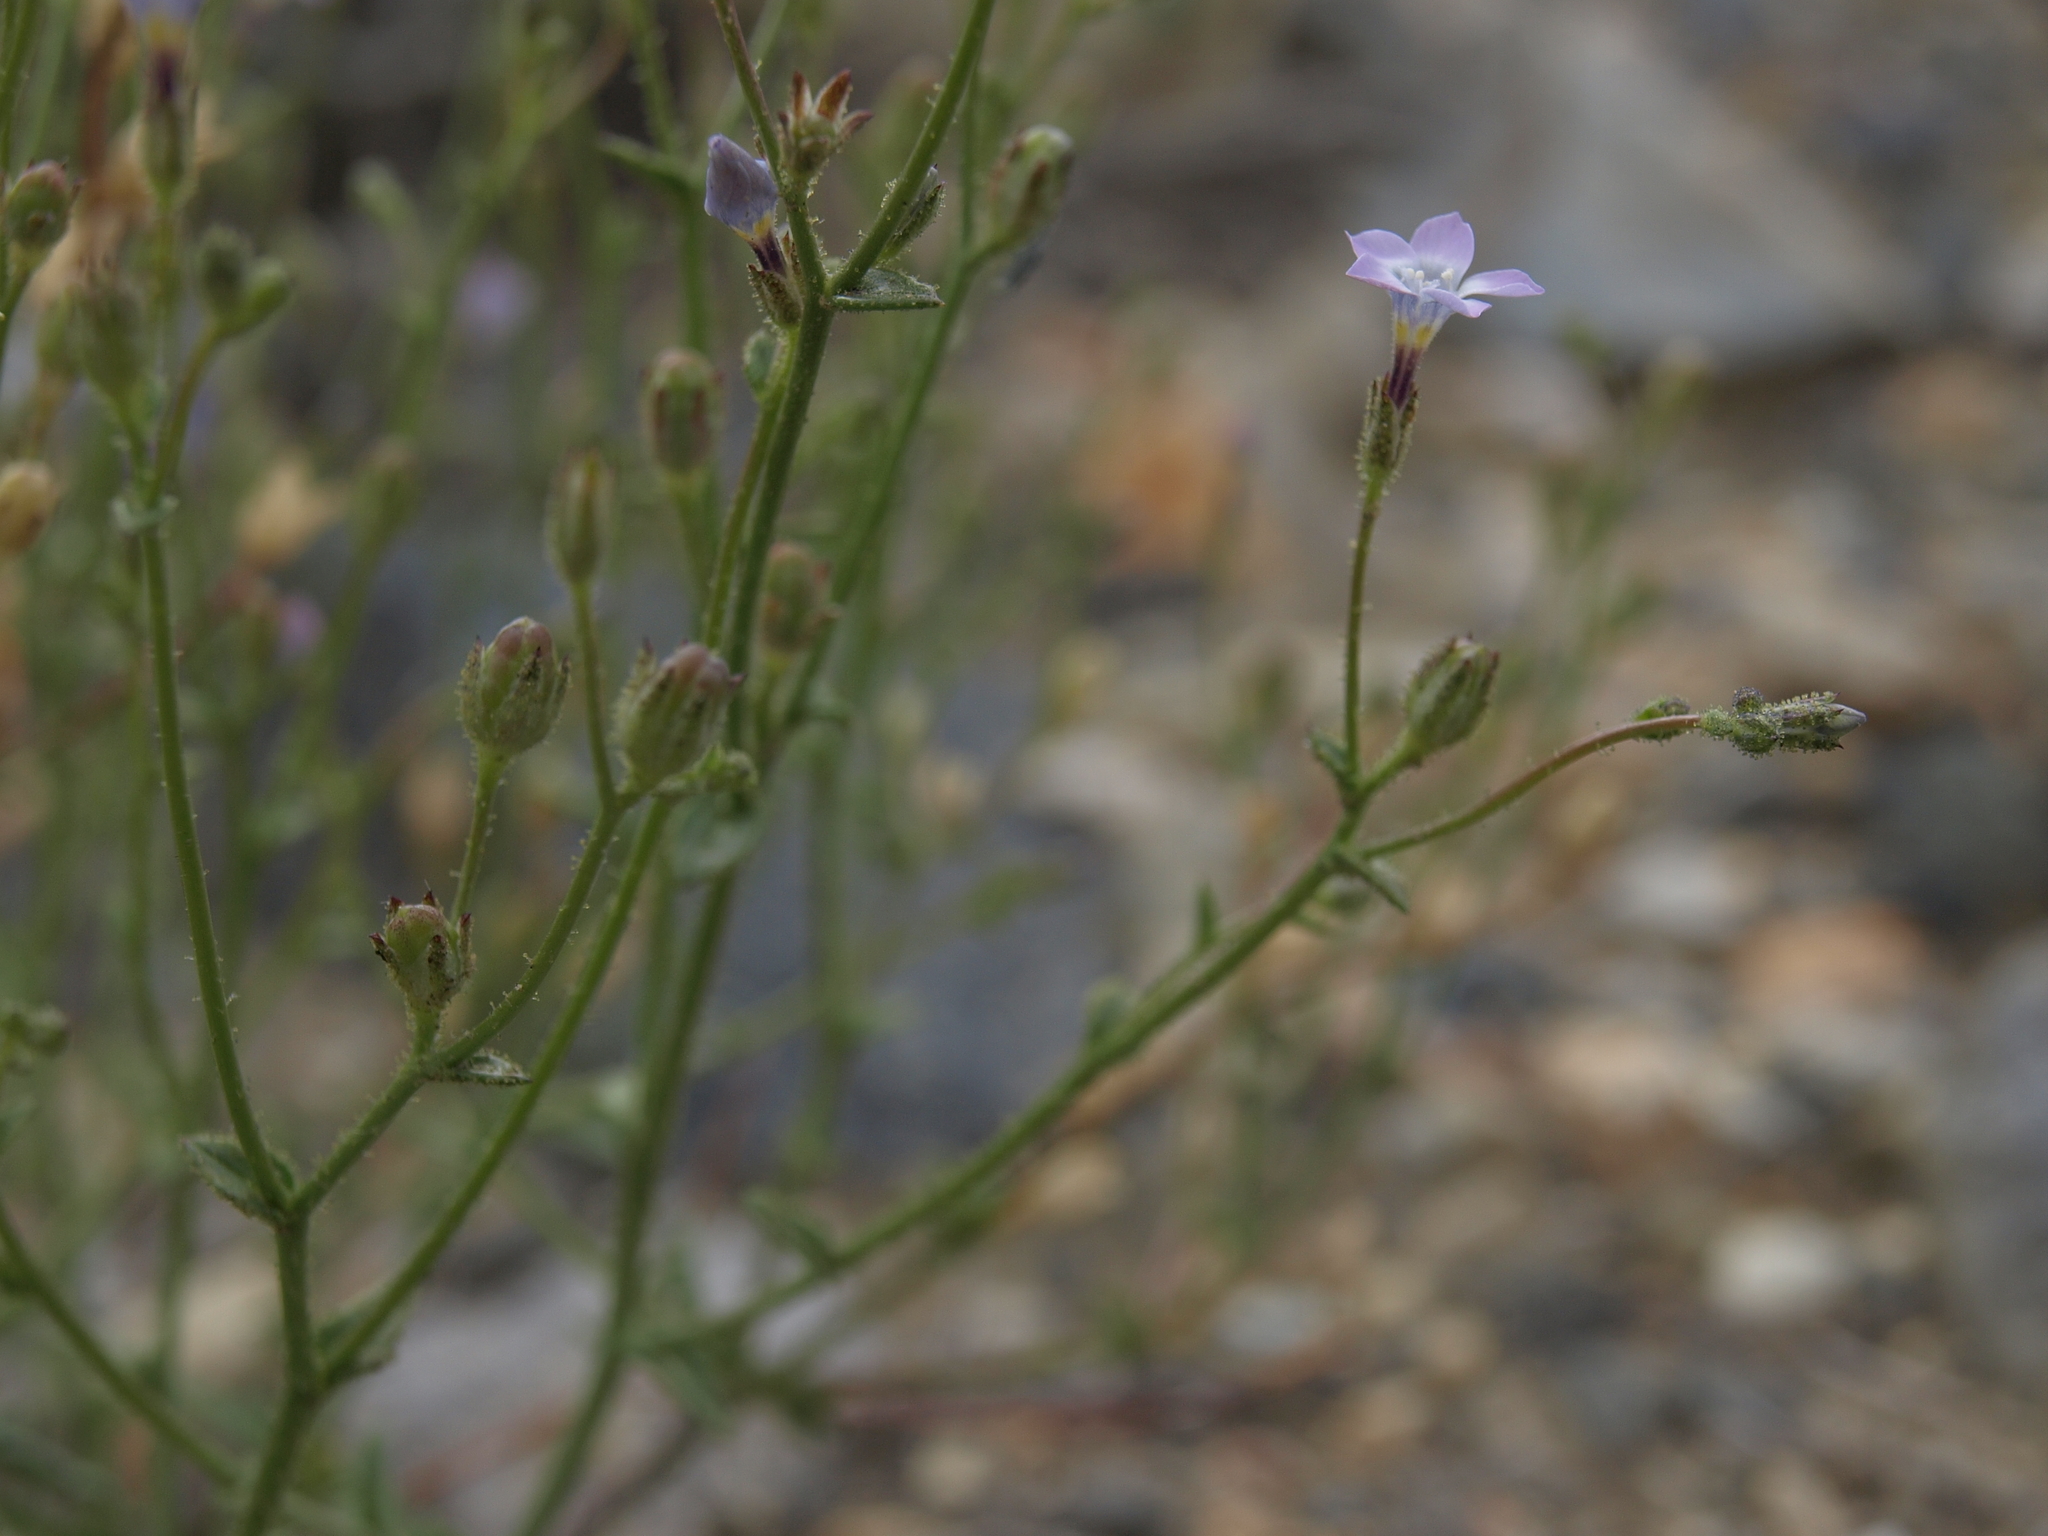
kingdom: Plantae
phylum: Tracheophyta
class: Magnoliopsida
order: Ericales
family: Polemoniaceae
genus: Gilia
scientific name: Gilia sinuata
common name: Rosy gilia
